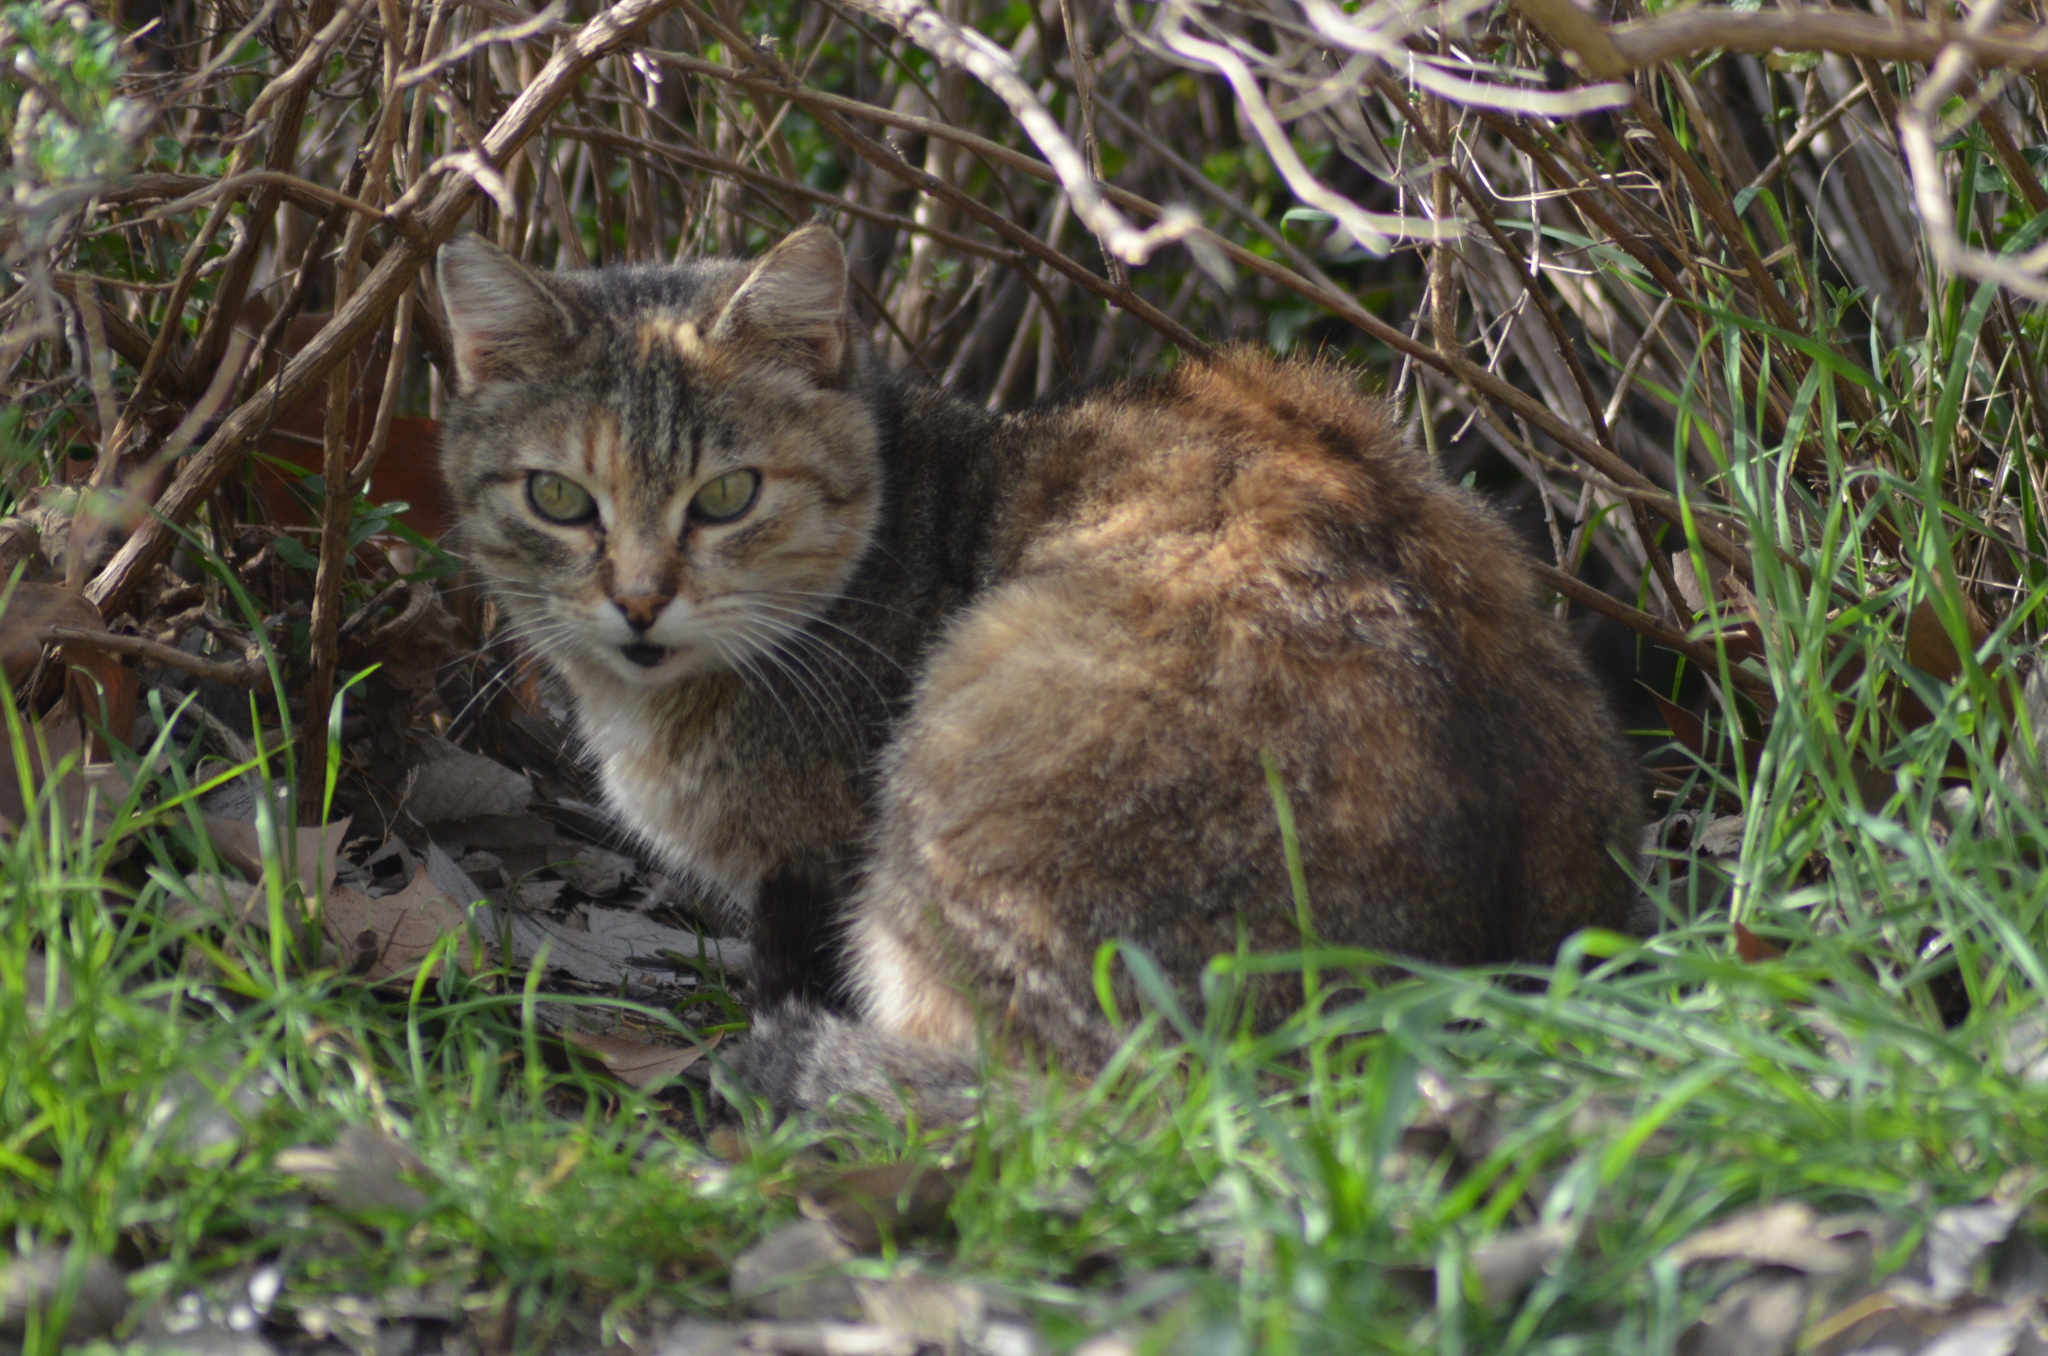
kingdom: Animalia
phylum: Chordata
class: Mammalia
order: Carnivora
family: Felidae
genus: Felis
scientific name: Felis catus
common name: Domestic cat
